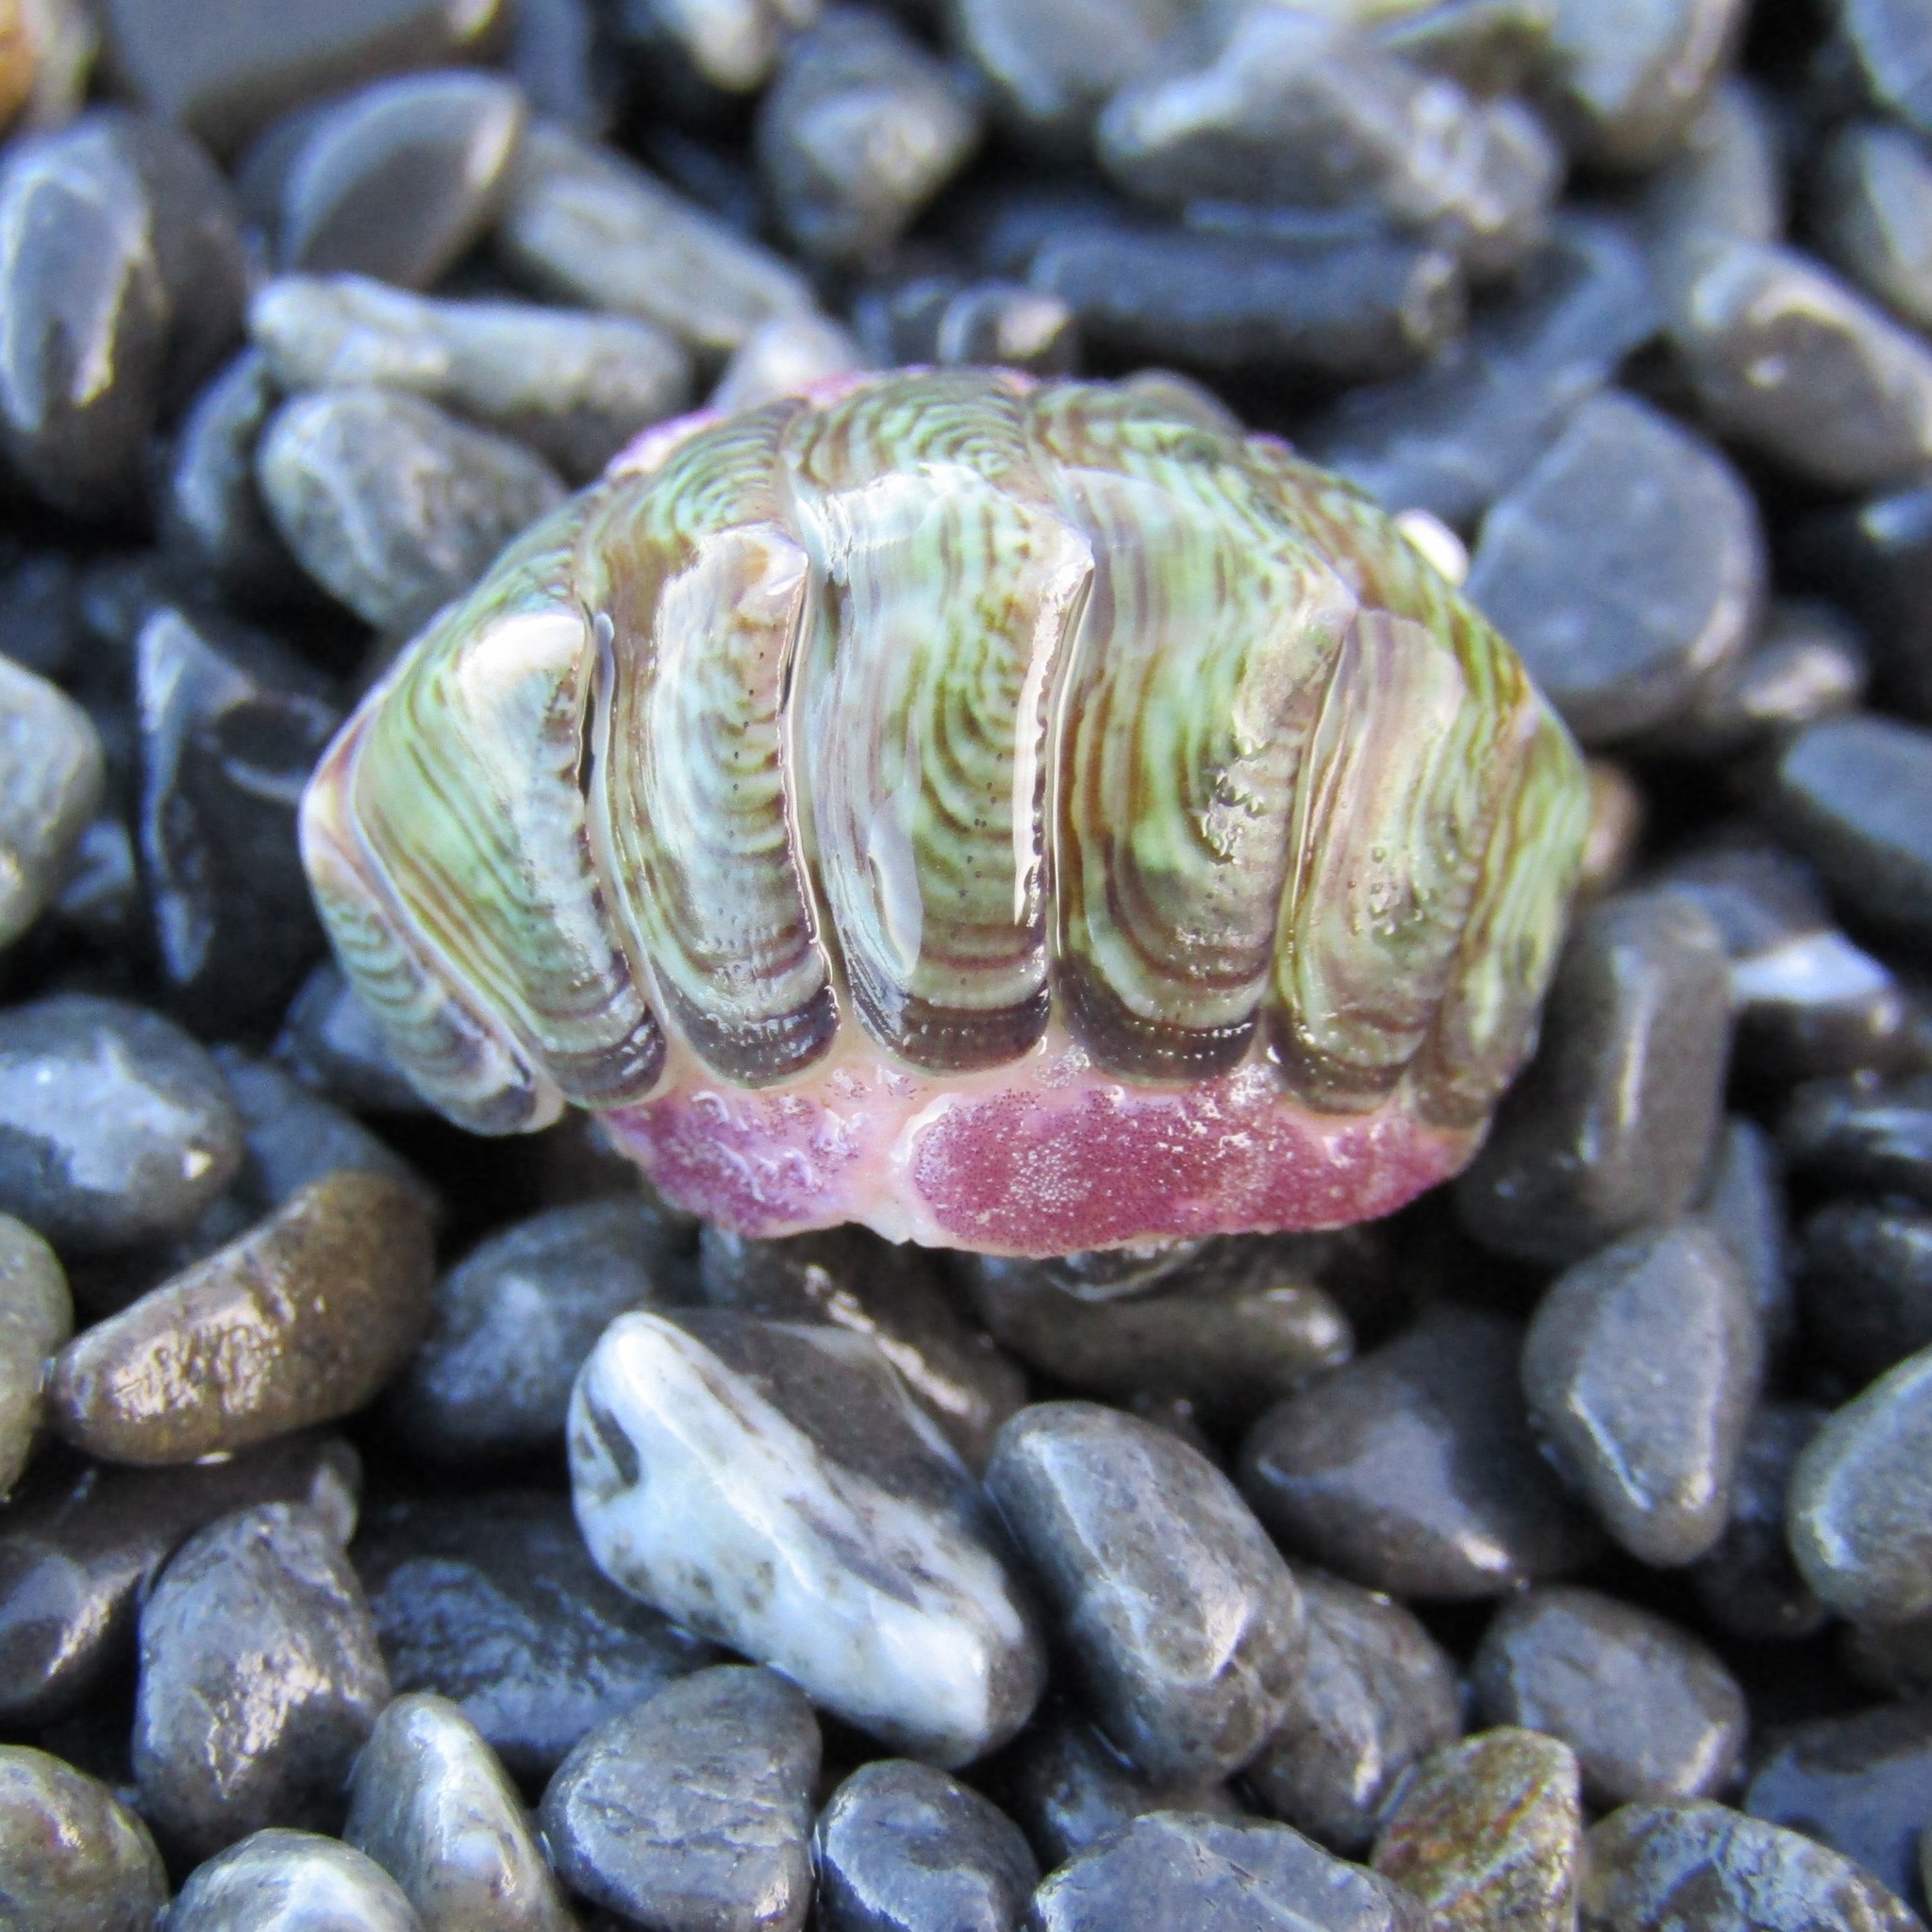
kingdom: Animalia
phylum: Mollusca
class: Polyplacophora
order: Chitonida
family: Chitonidae
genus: Onithochiton
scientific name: Onithochiton neglectus
